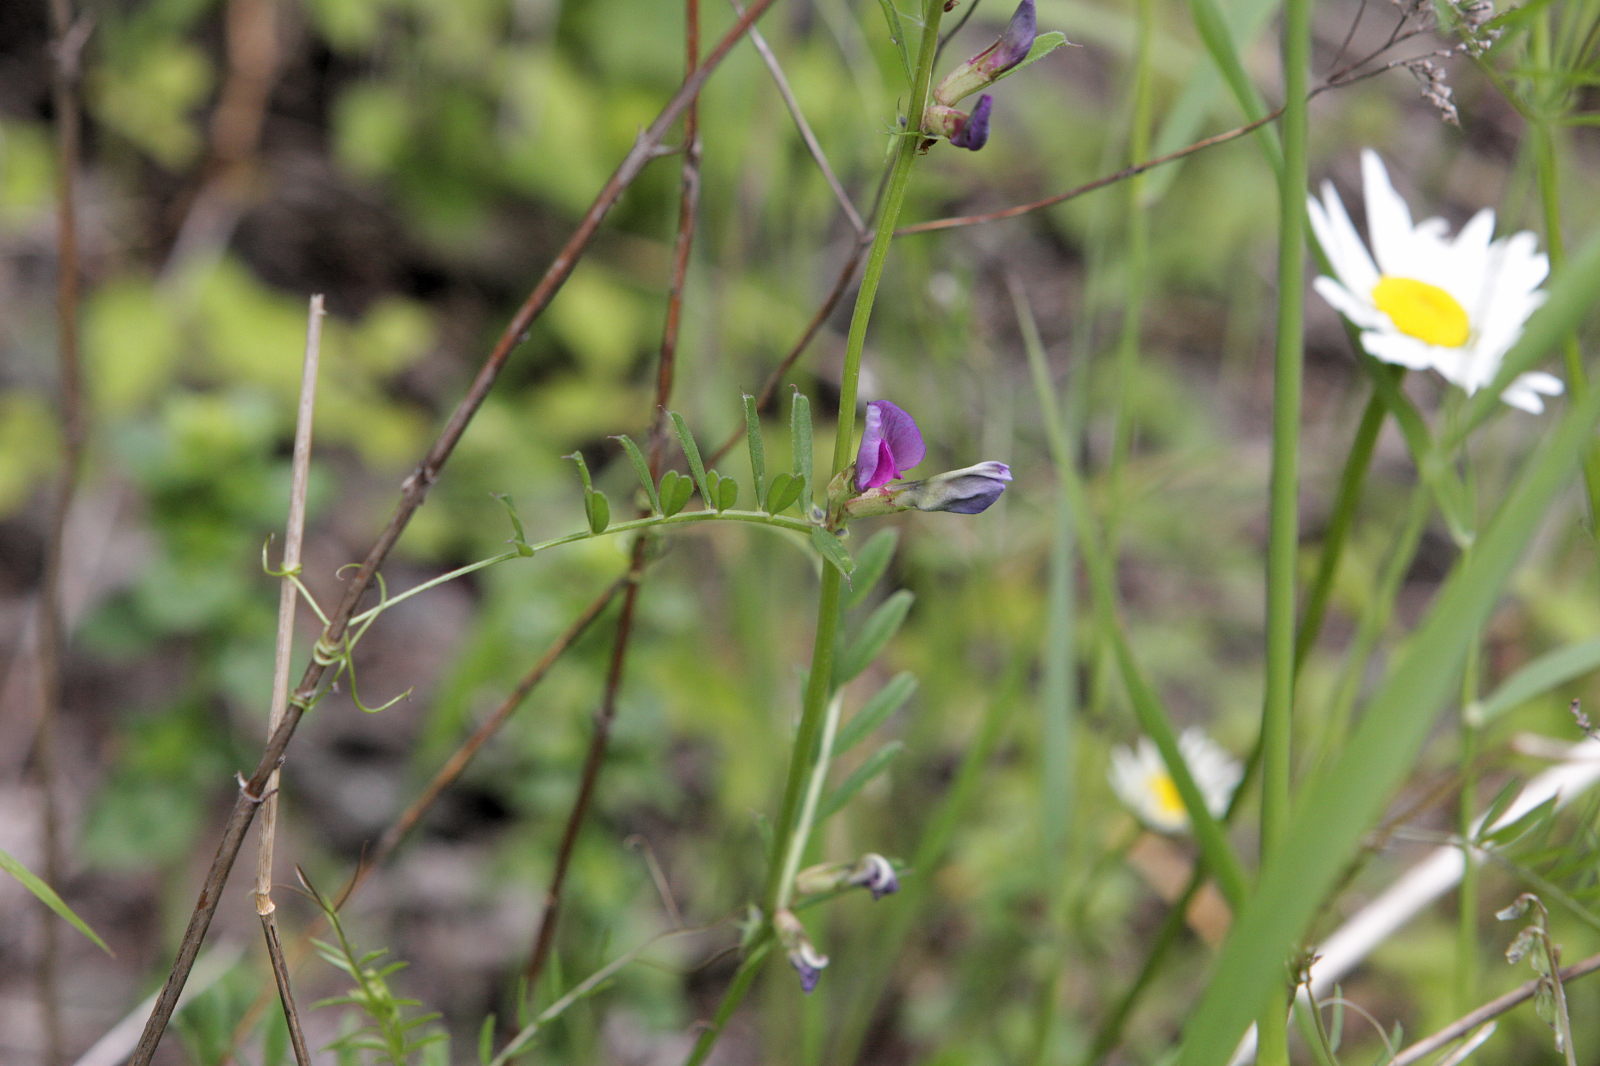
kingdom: Plantae
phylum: Tracheophyta
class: Magnoliopsida
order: Fabales
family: Fabaceae
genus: Vicia
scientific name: Vicia sativa
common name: Garden vetch
